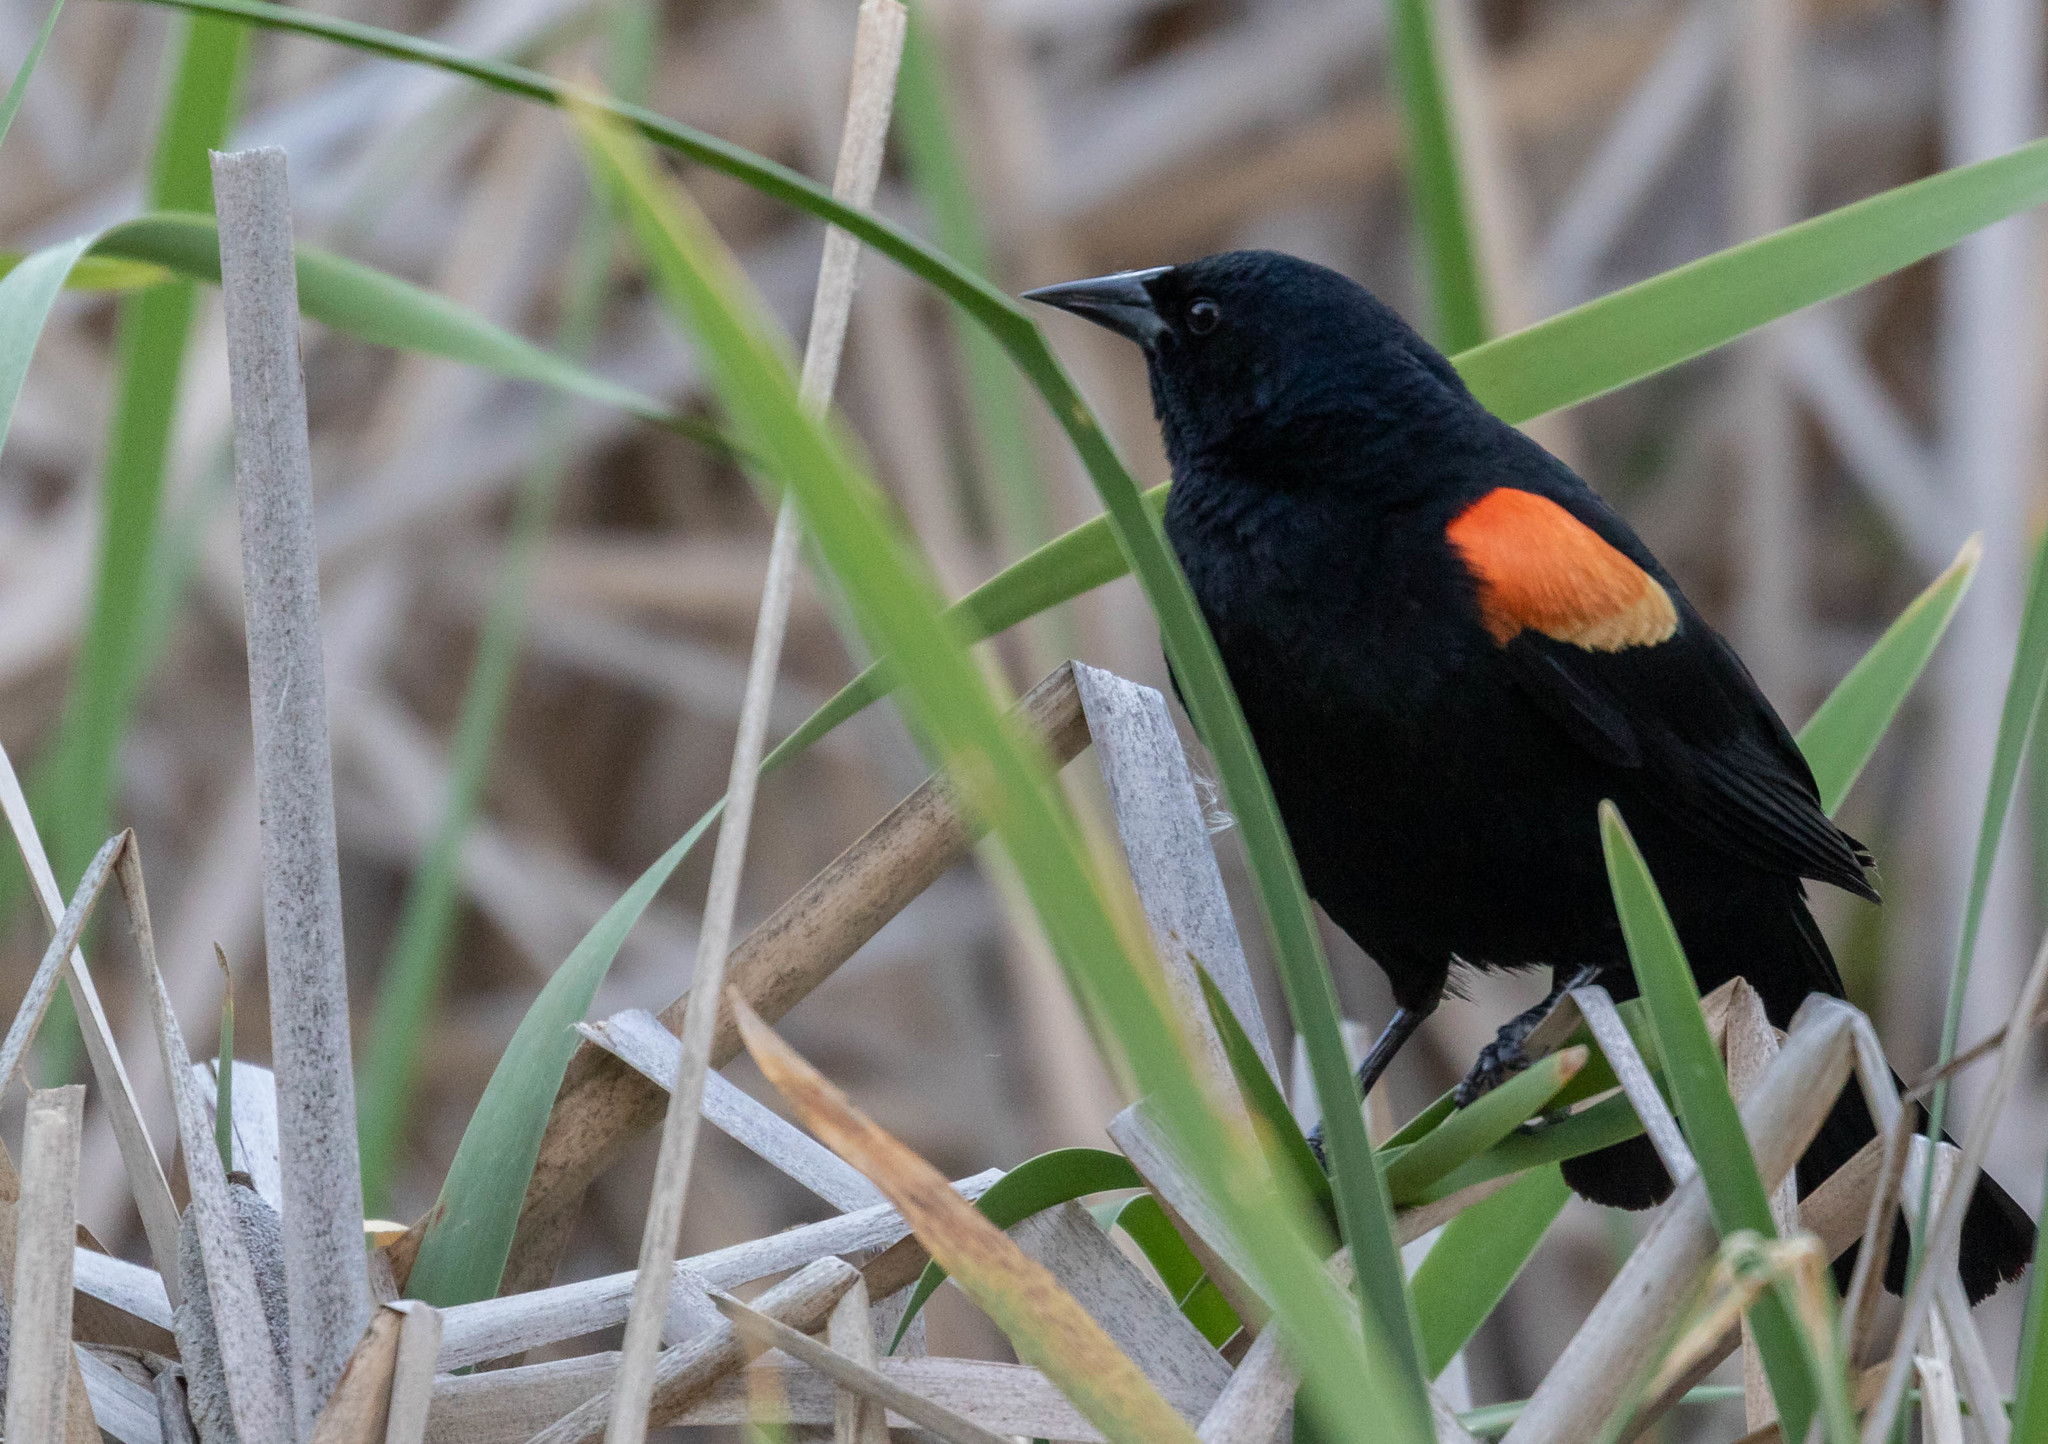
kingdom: Animalia
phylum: Chordata
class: Aves
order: Passeriformes
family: Icteridae
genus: Agelaius
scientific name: Agelaius phoeniceus
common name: Red-winged blackbird
